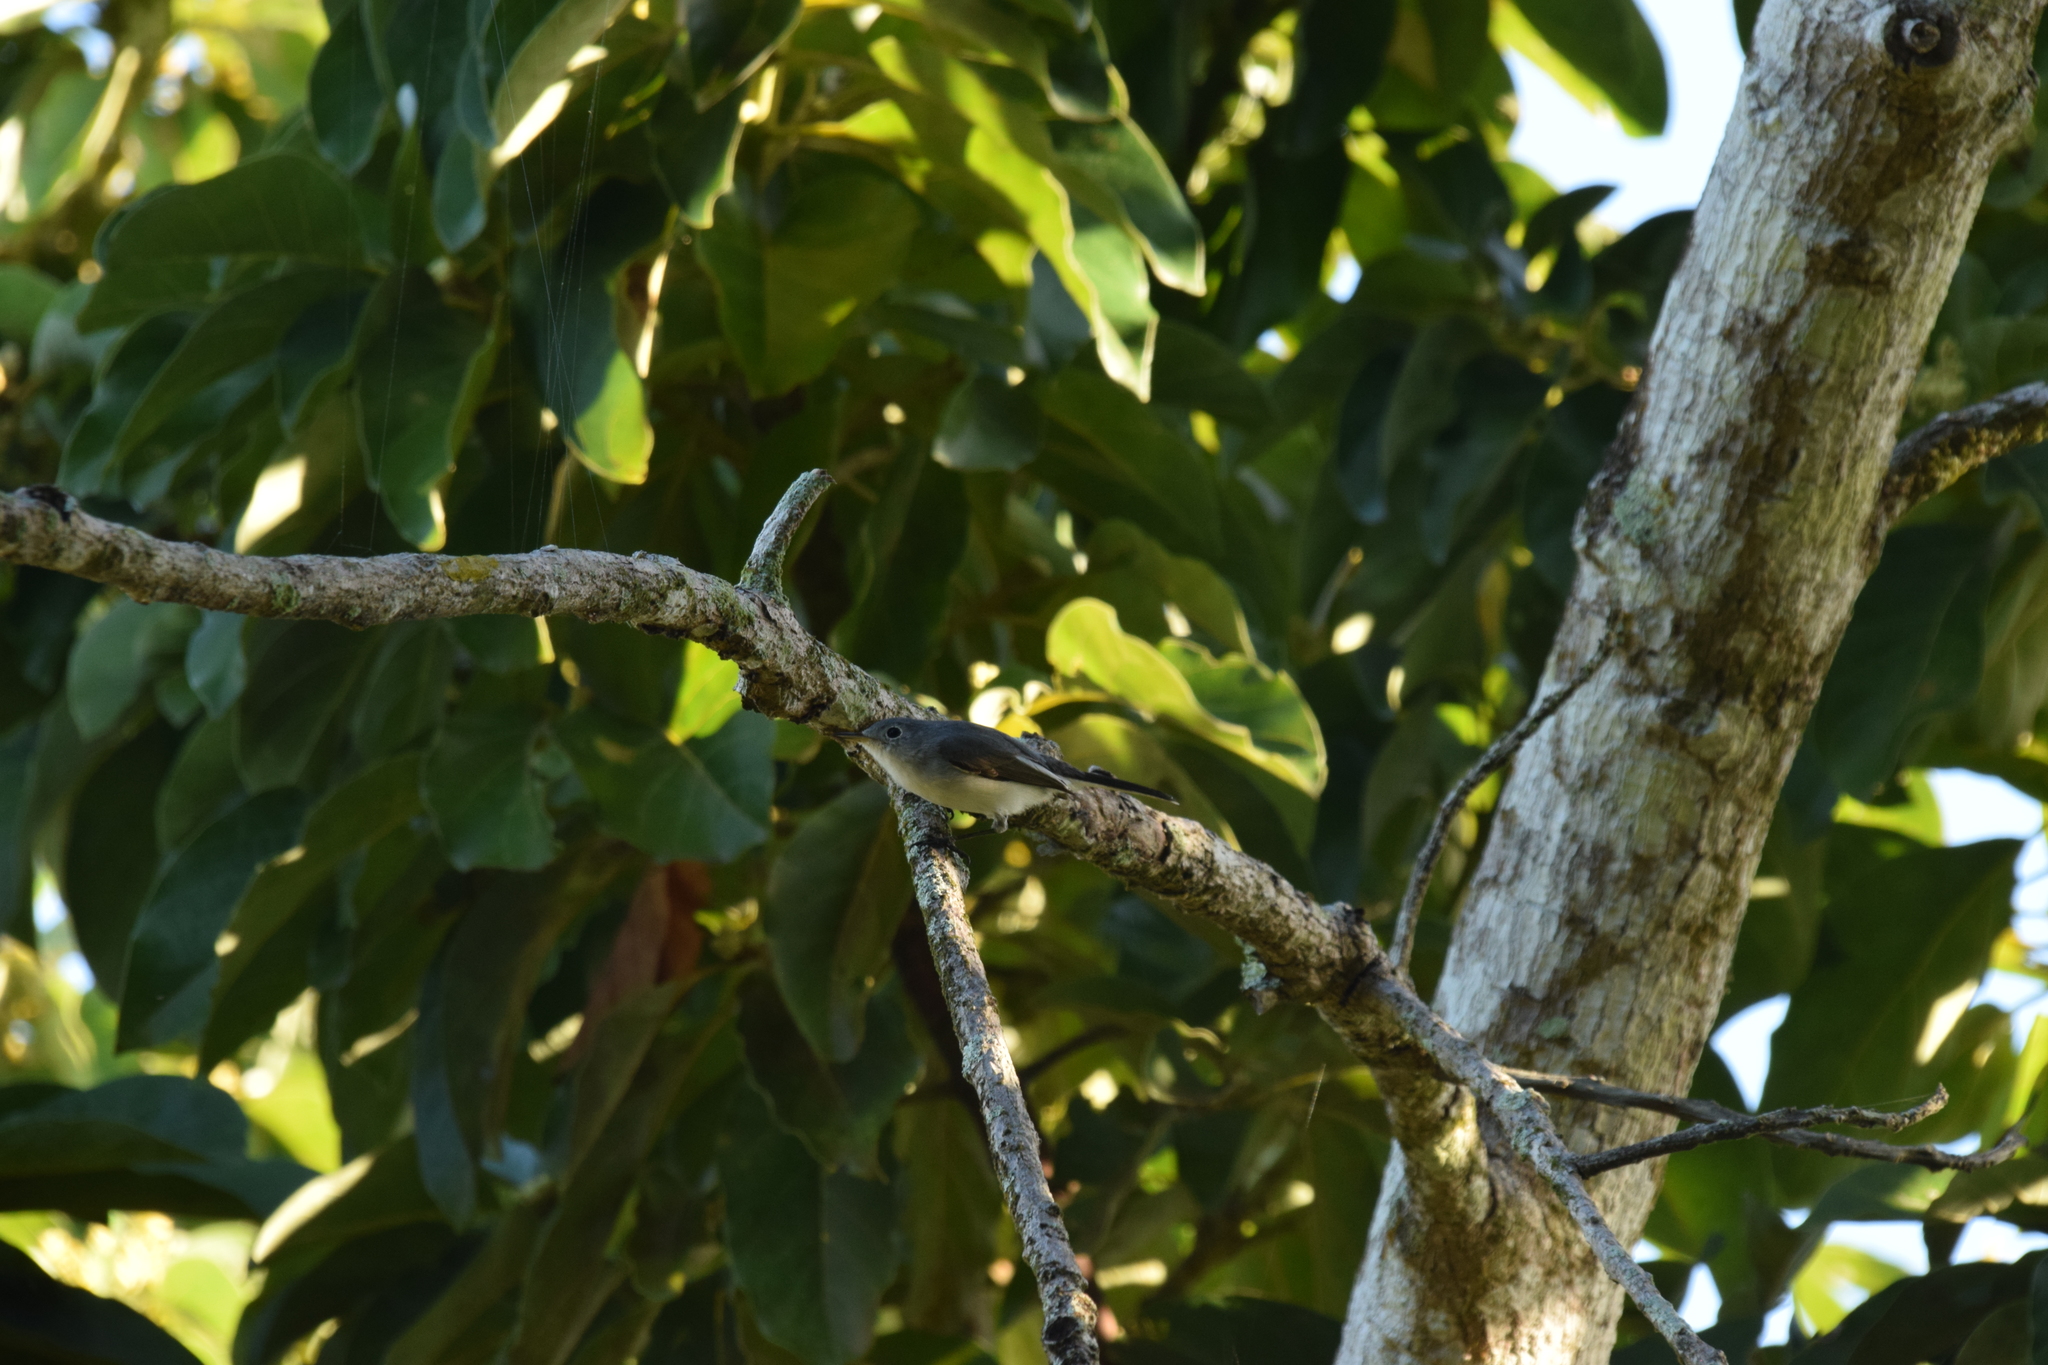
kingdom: Animalia
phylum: Chordata
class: Aves
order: Passeriformes
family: Polioptilidae
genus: Polioptila
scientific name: Polioptila caerulea
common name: Blue-gray gnatcatcher
